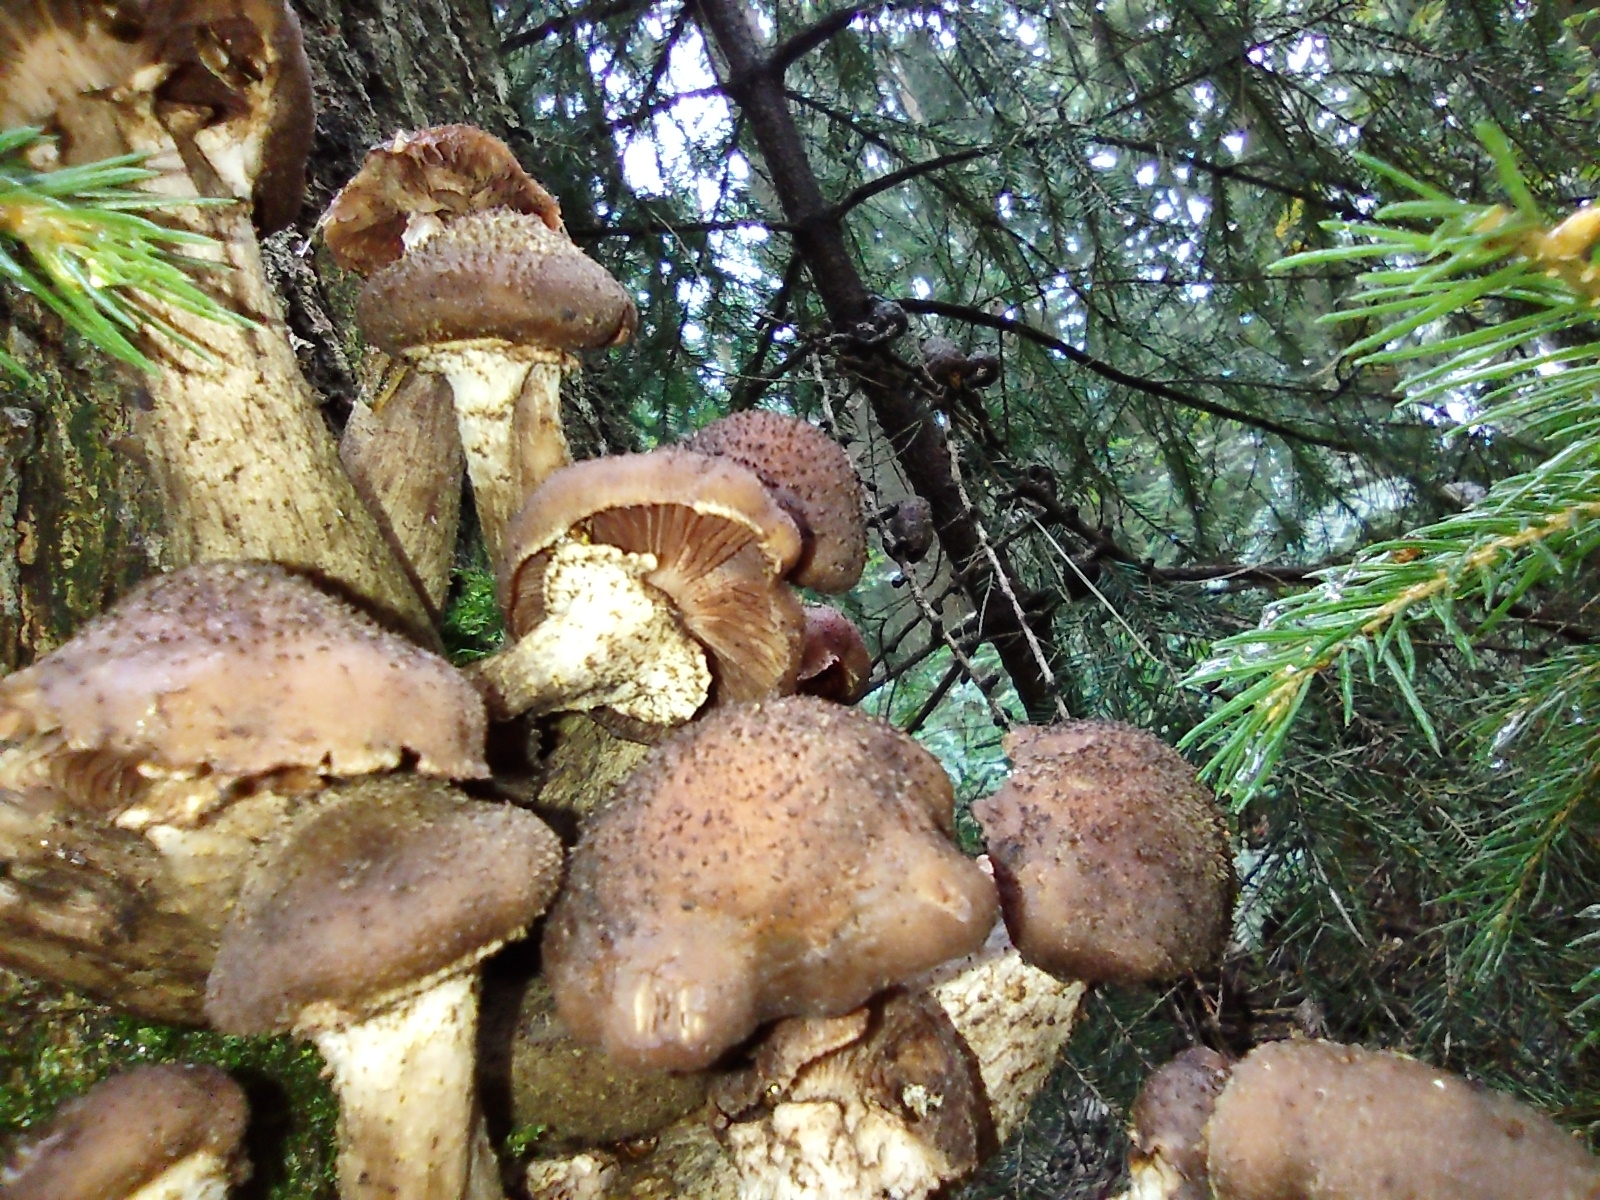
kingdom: Fungi
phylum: Basidiomycota
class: Agaricomycetes
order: Agaricales
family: Physalacriaceae
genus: Armillaria
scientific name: Armillaria ostoyae
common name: Dark honey fungus
